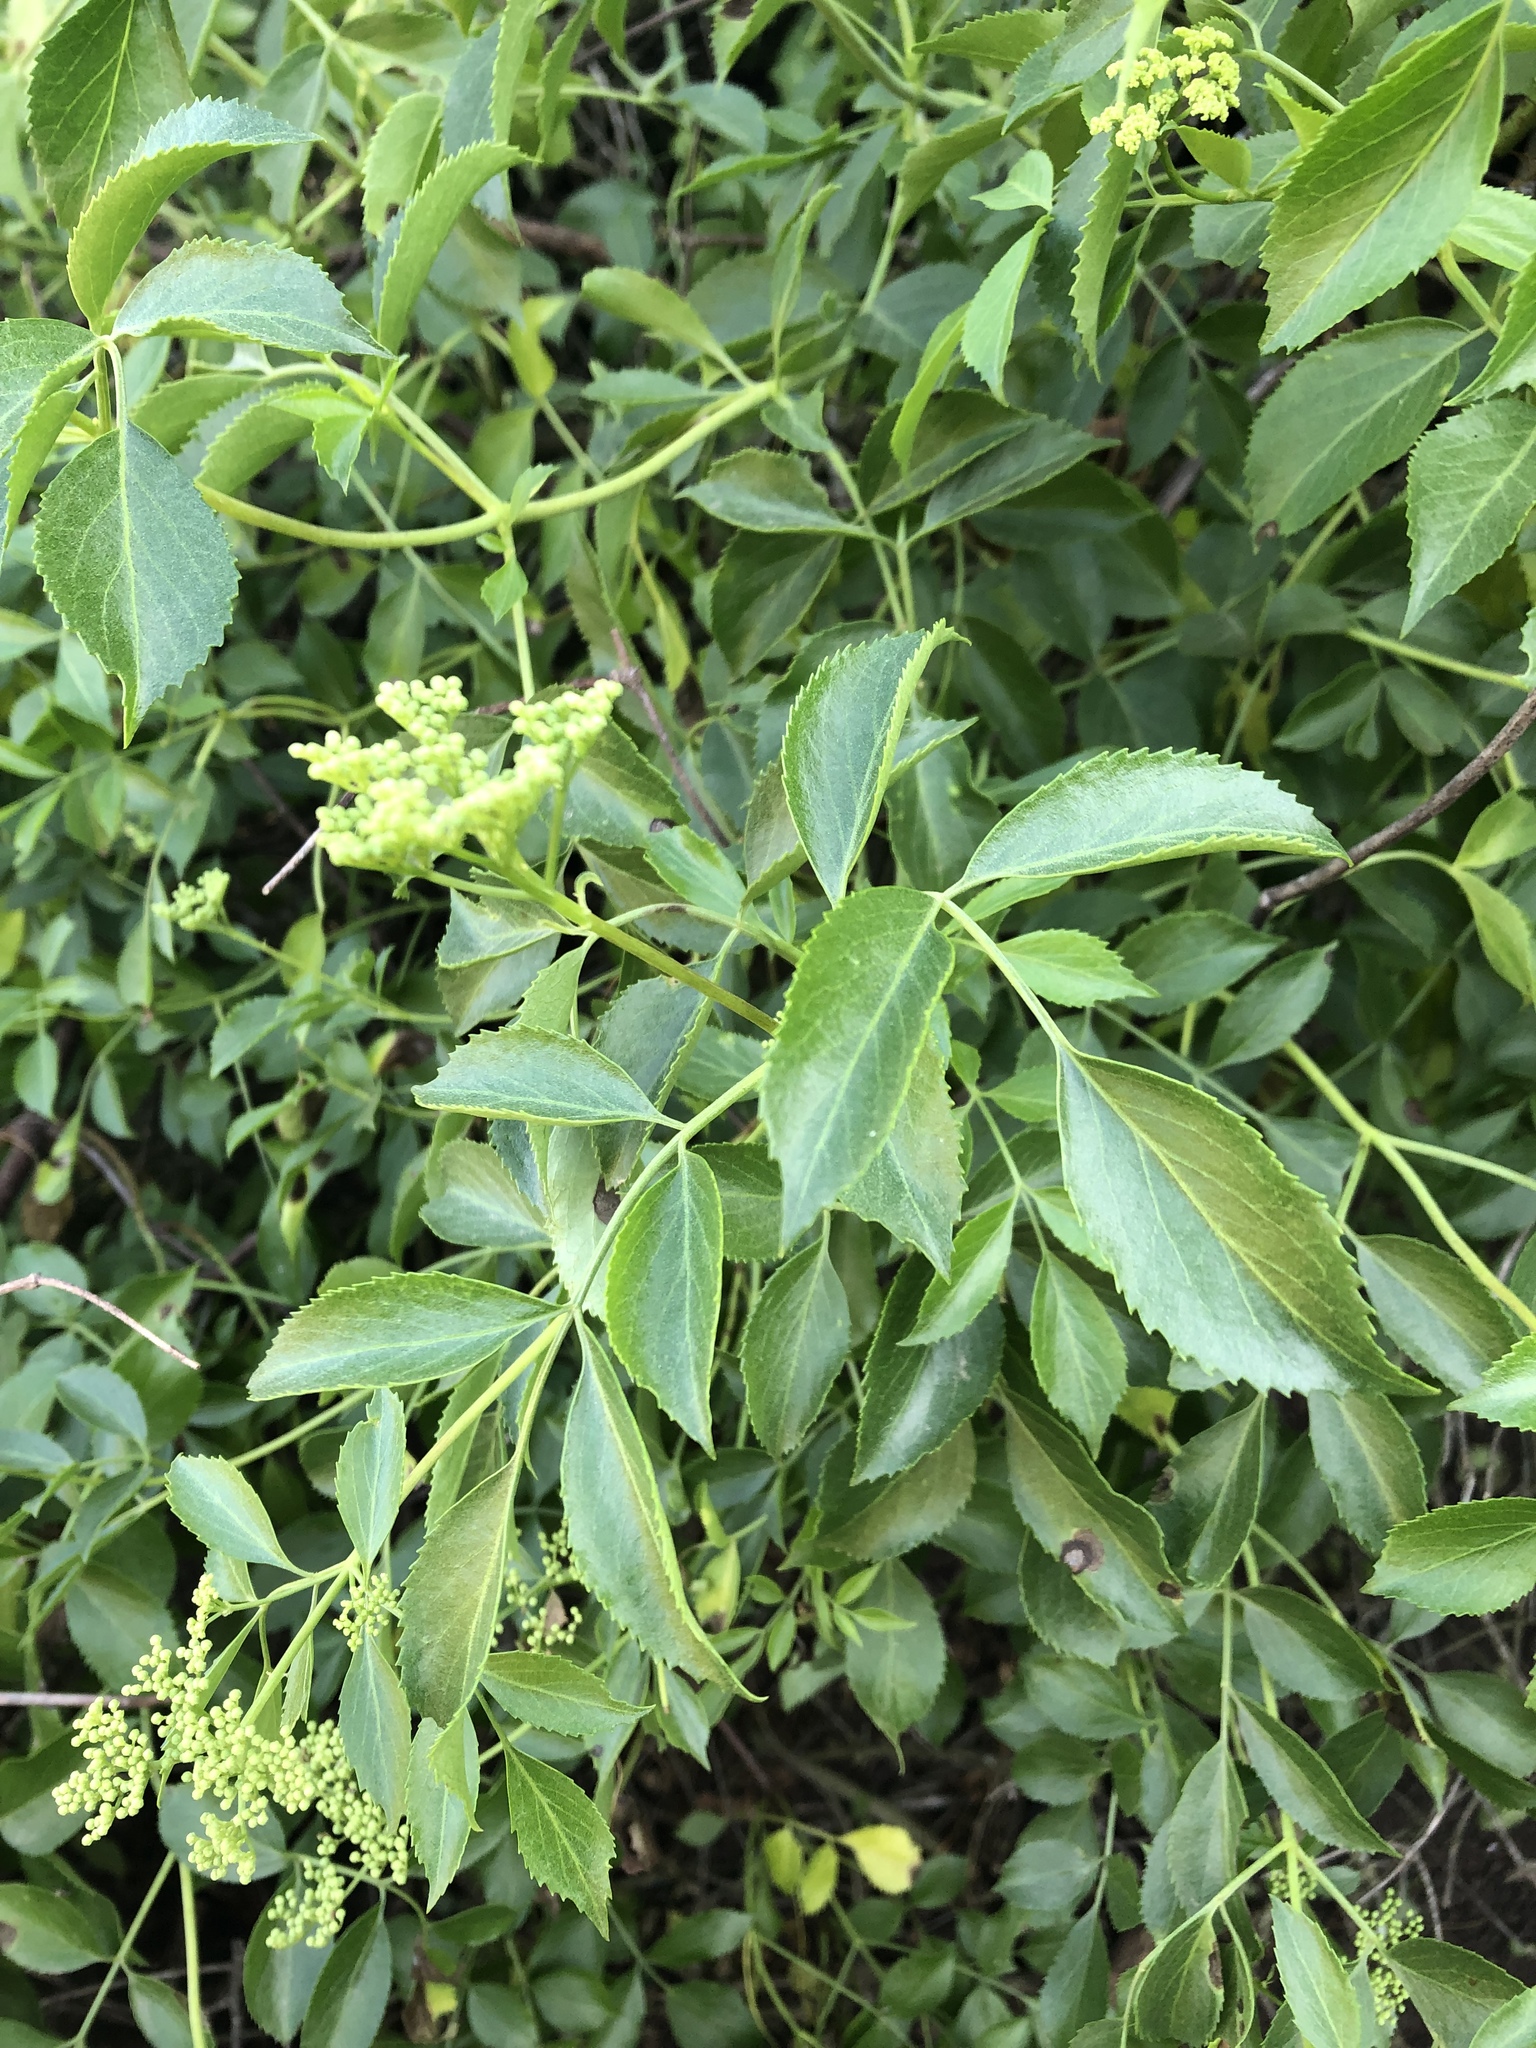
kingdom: Plantae
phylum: Tracheophyta
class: Magnoliopsida
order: Dipsacales
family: Viburnaceae
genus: Sambucus
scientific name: Sambucus cerulea
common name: Blue elder
